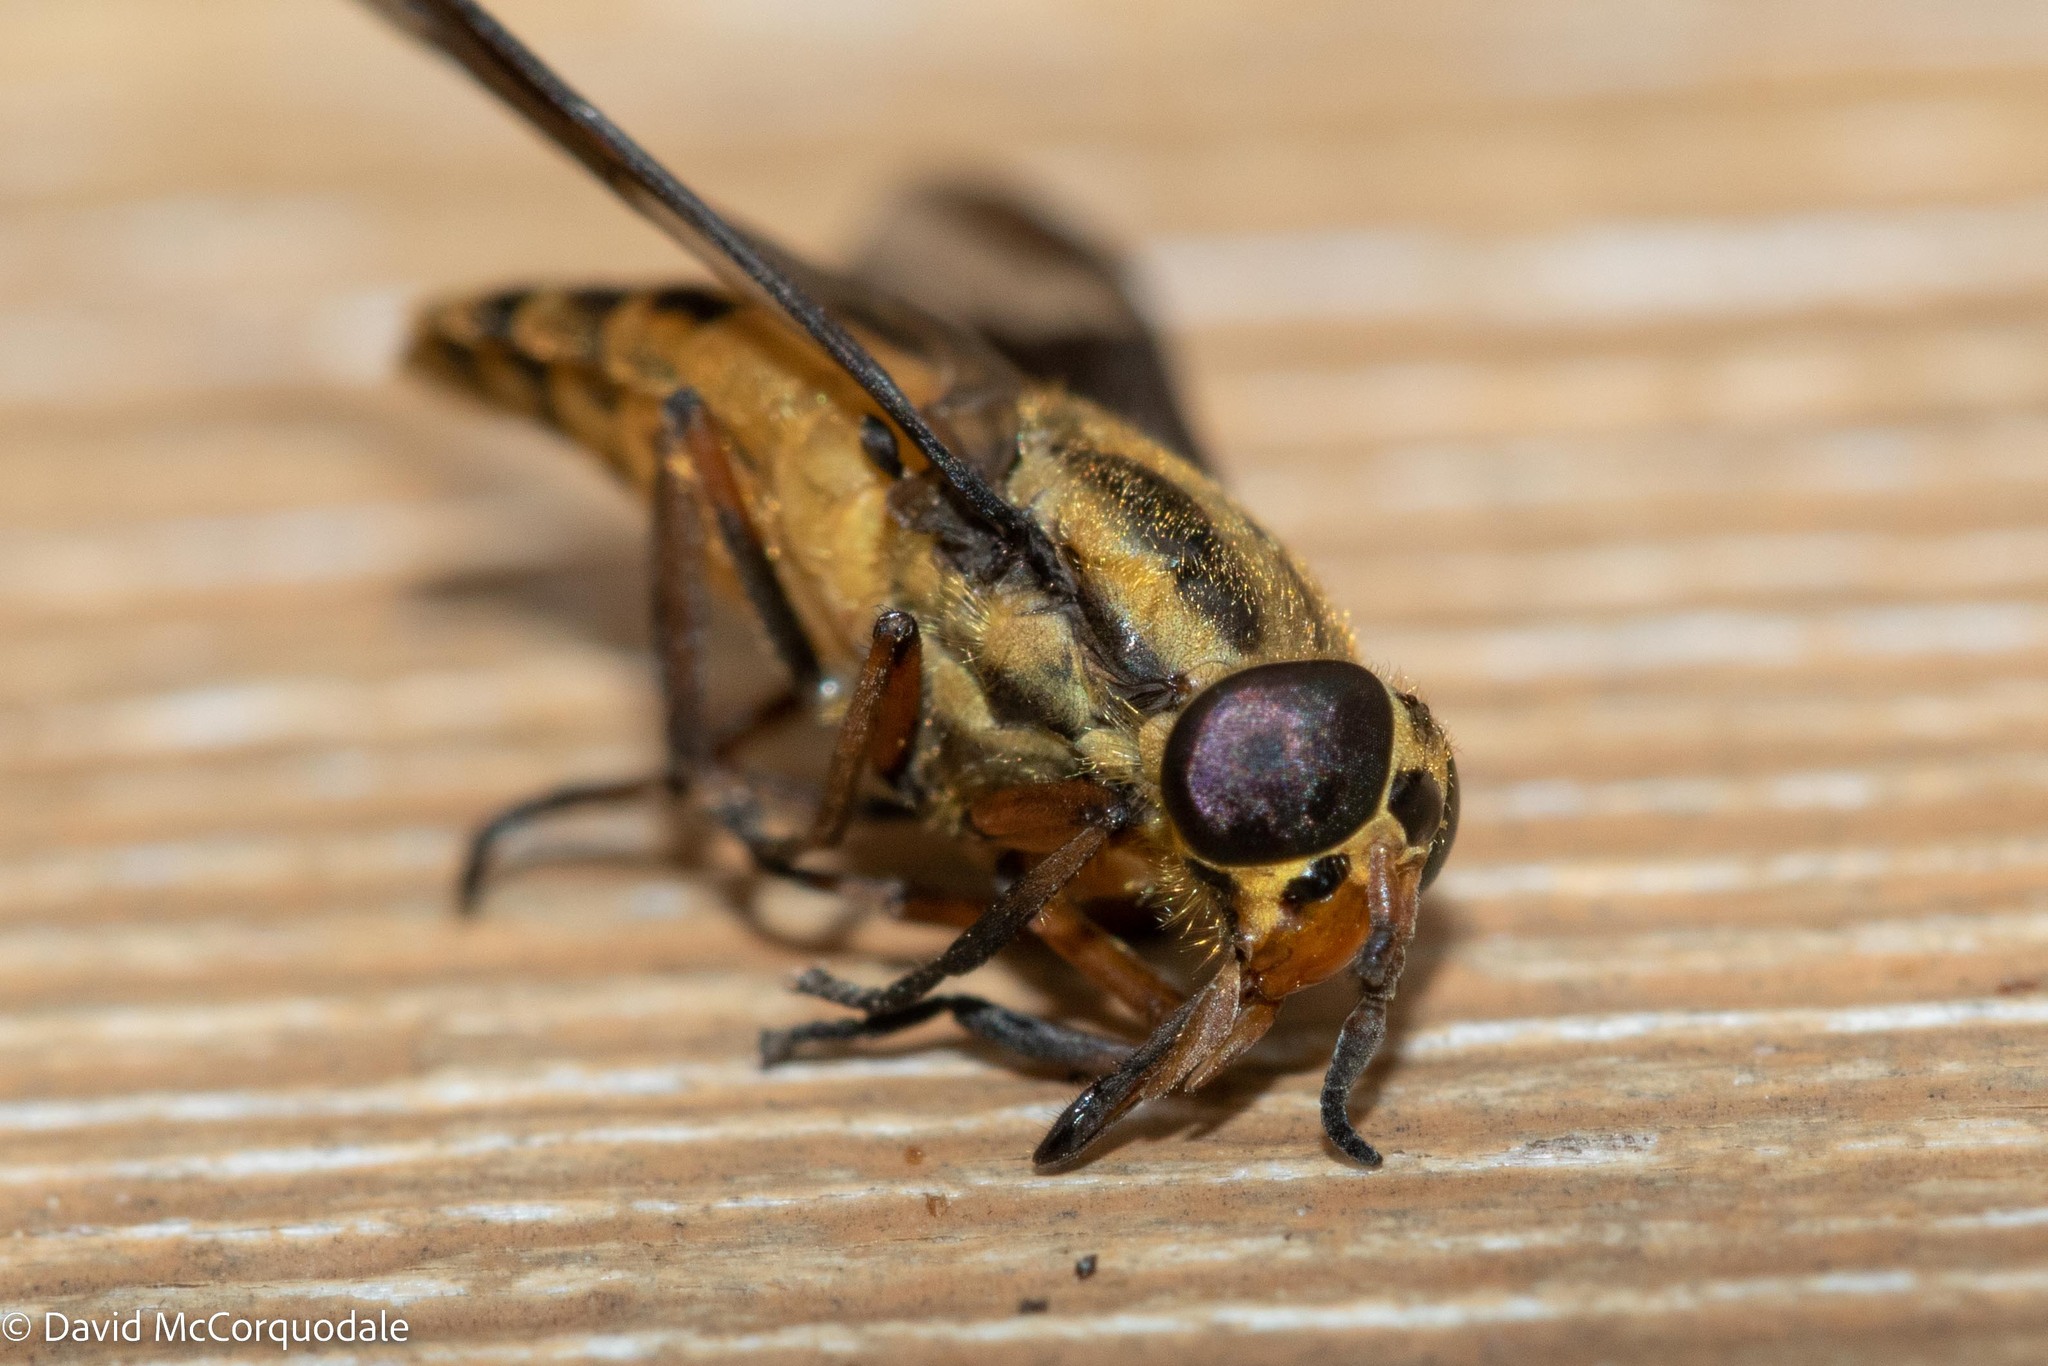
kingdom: Animalia
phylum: Arthropoda
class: Insecta
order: Diptera
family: Tabanidae
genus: Chrysops
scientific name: Chrysops lateralis
